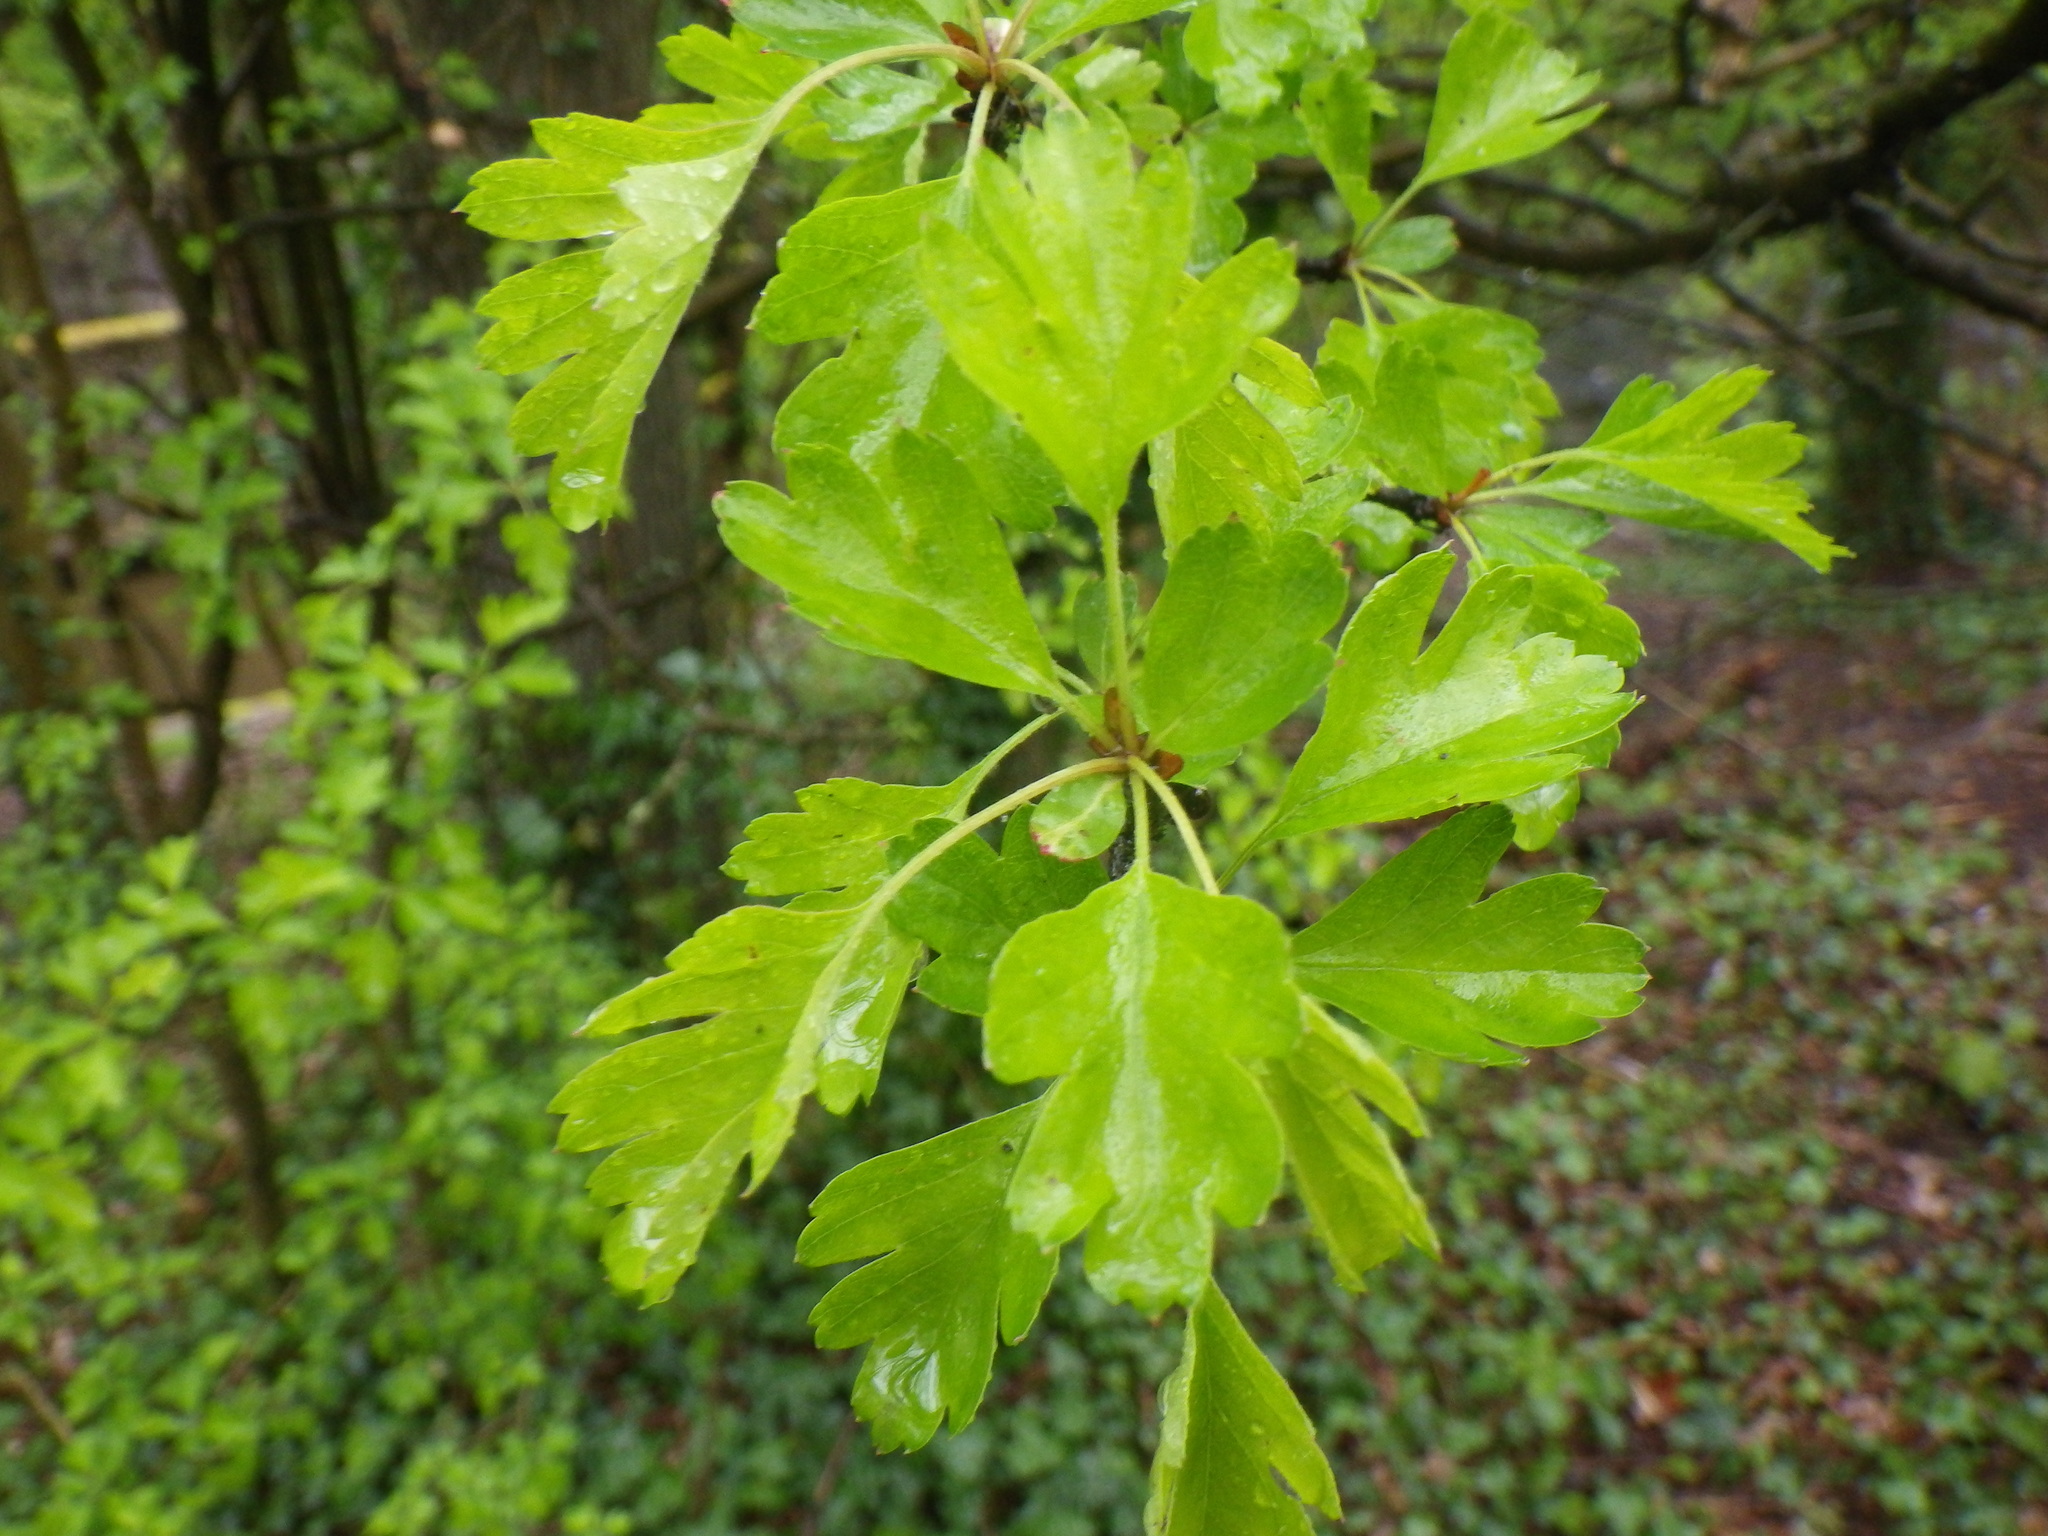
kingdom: Plantae
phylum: Tracheophyta
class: Magnoliopsida
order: Rosales
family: Rosaceae
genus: Crataegus
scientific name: Crataegus monogyna
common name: Hawthorn
